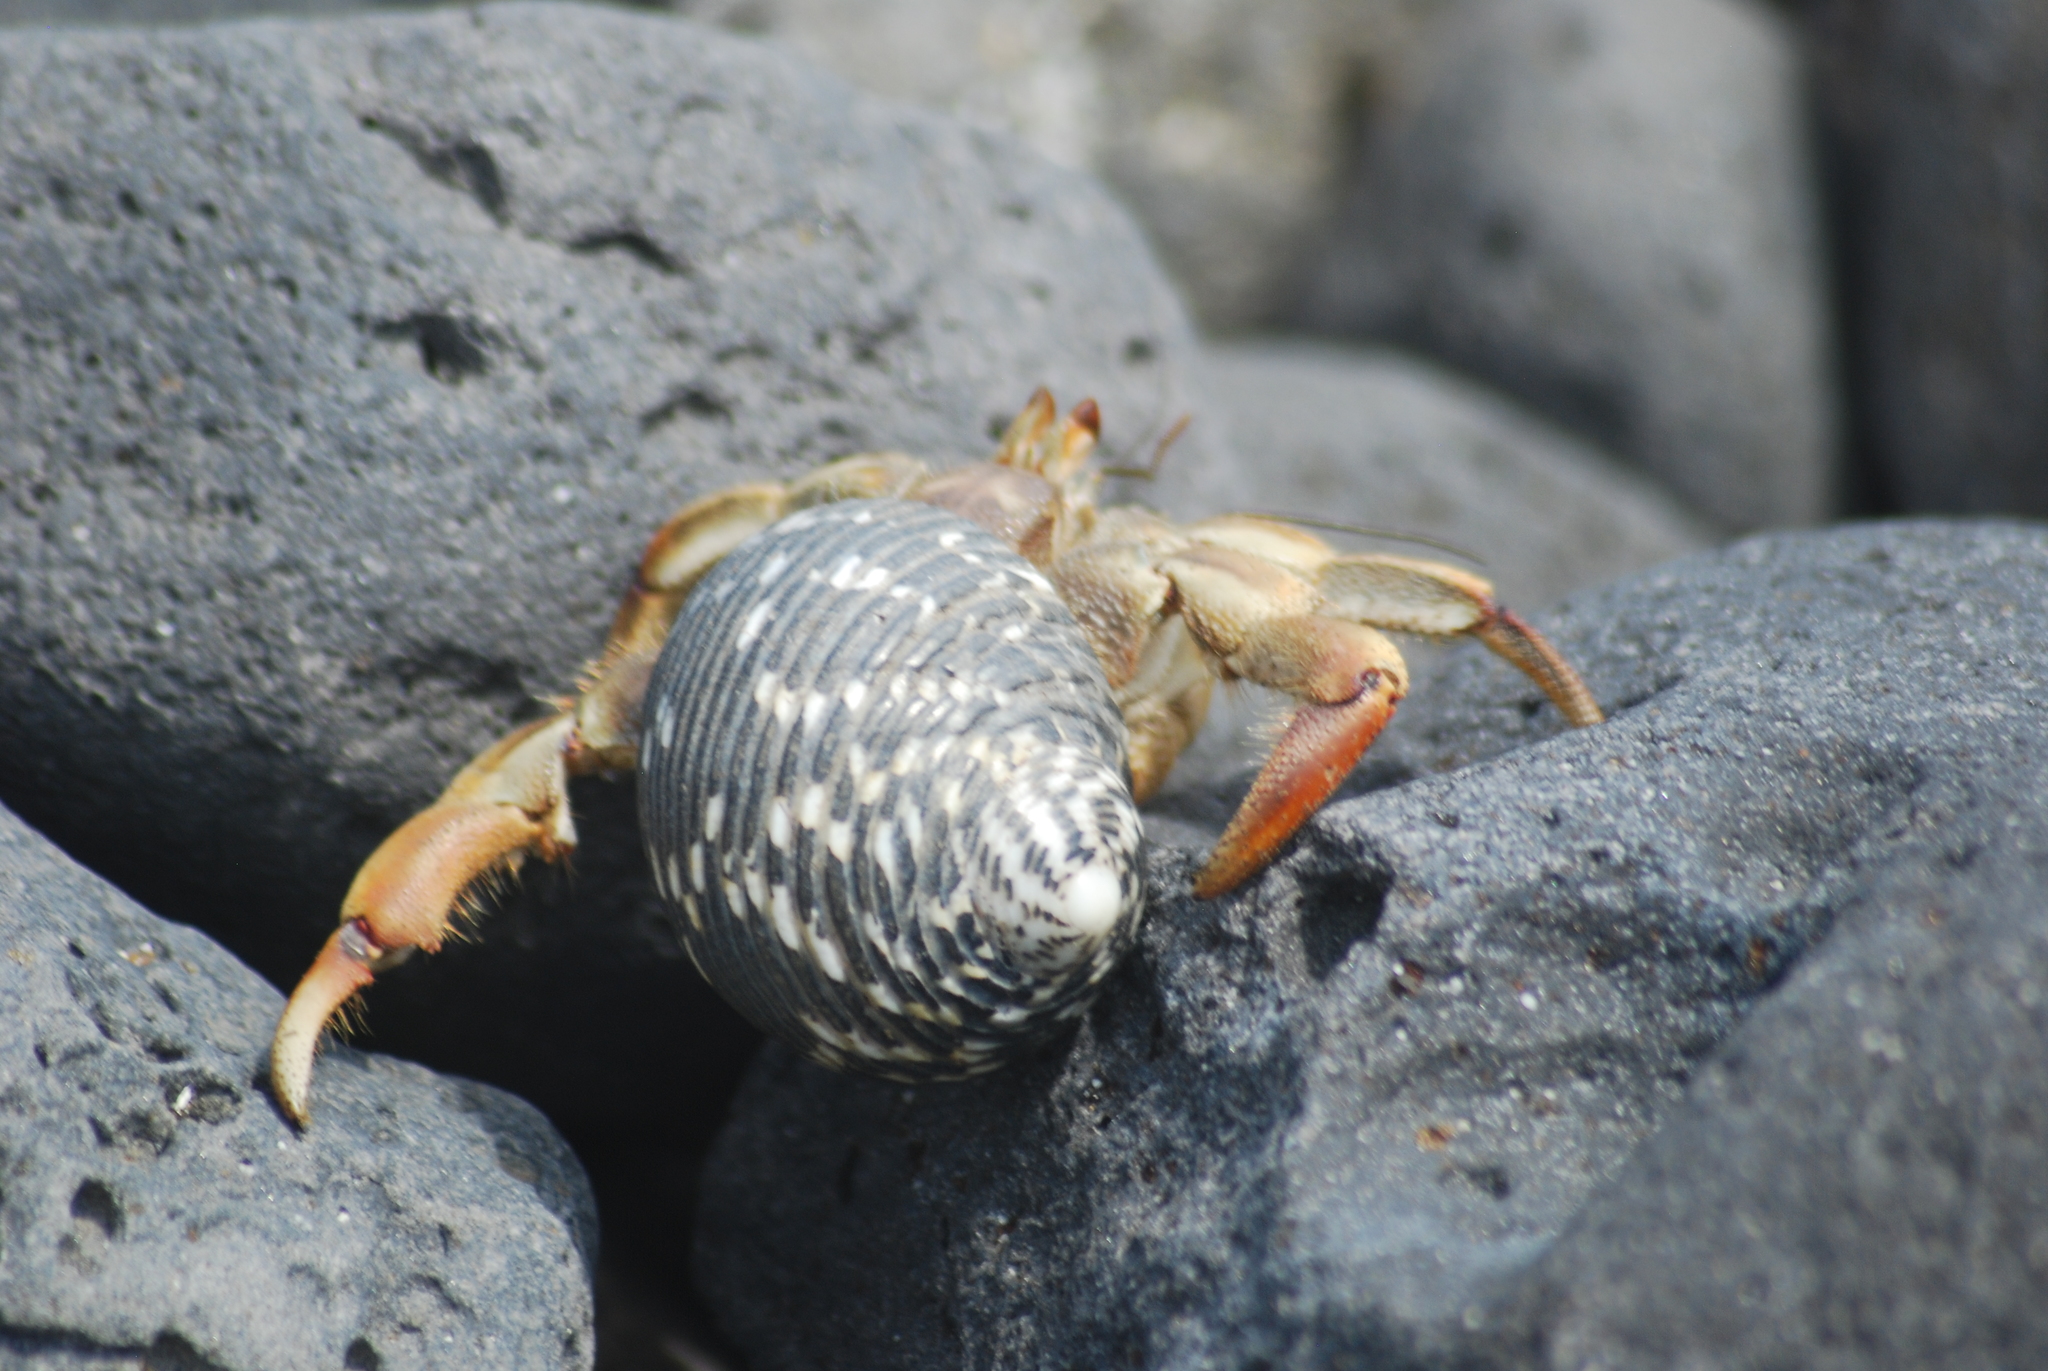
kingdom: Animalia
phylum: Arthropoda
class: Malacostraca
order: Decapoda
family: Coenobitidae
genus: Coenobita
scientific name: Coenobita compressus
